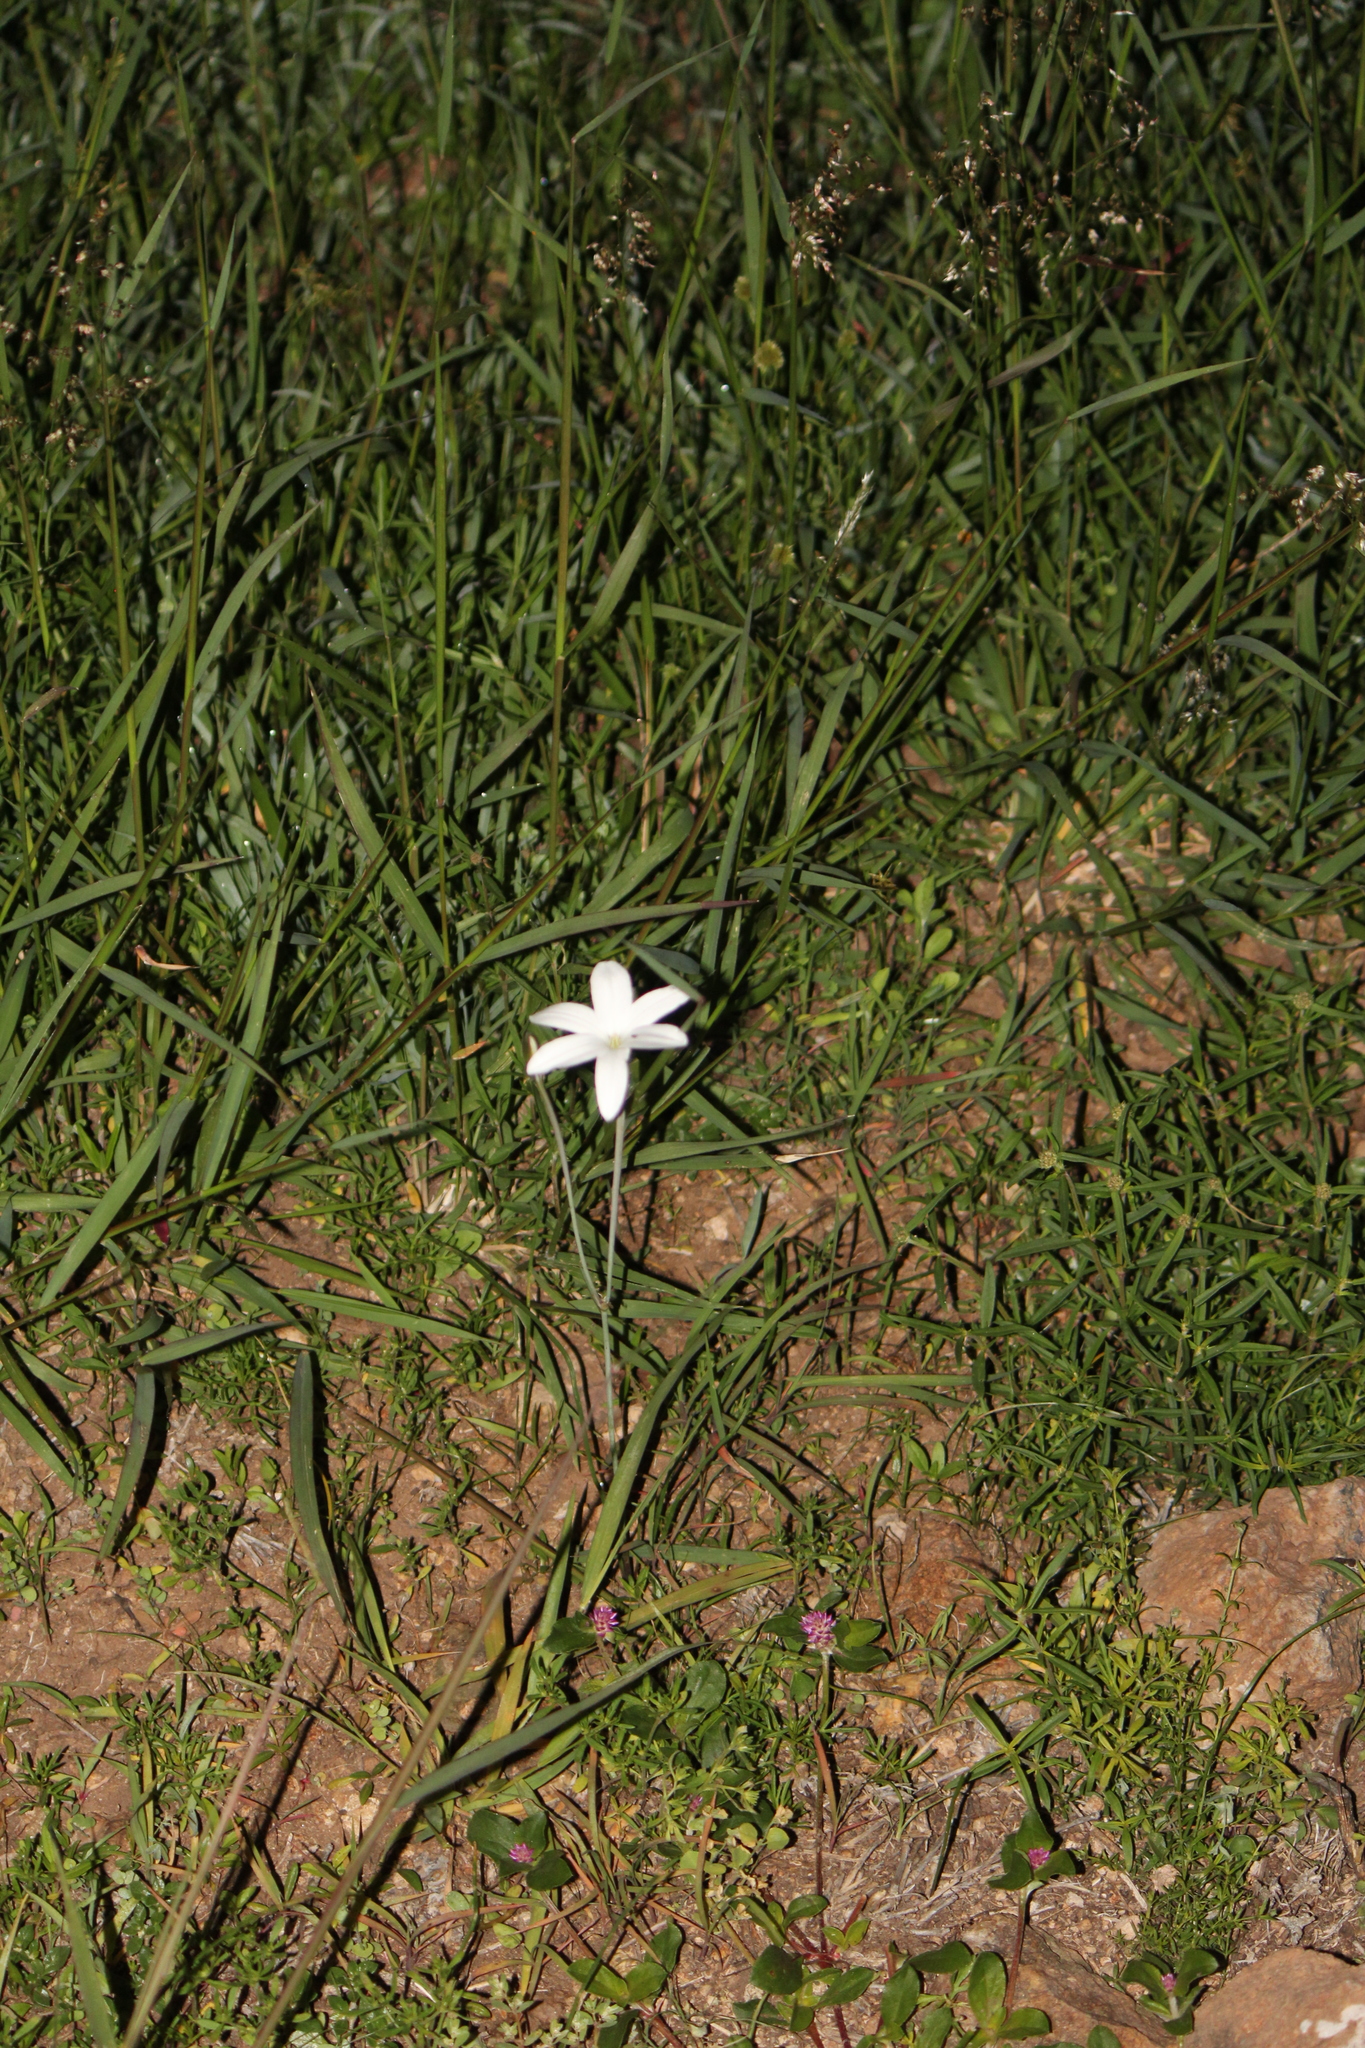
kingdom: Plantae
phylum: Tracheophyta
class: Liliopsida
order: Asparagales
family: Asparagaceae
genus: Milla
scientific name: Milla biflora
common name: Mexican-star
